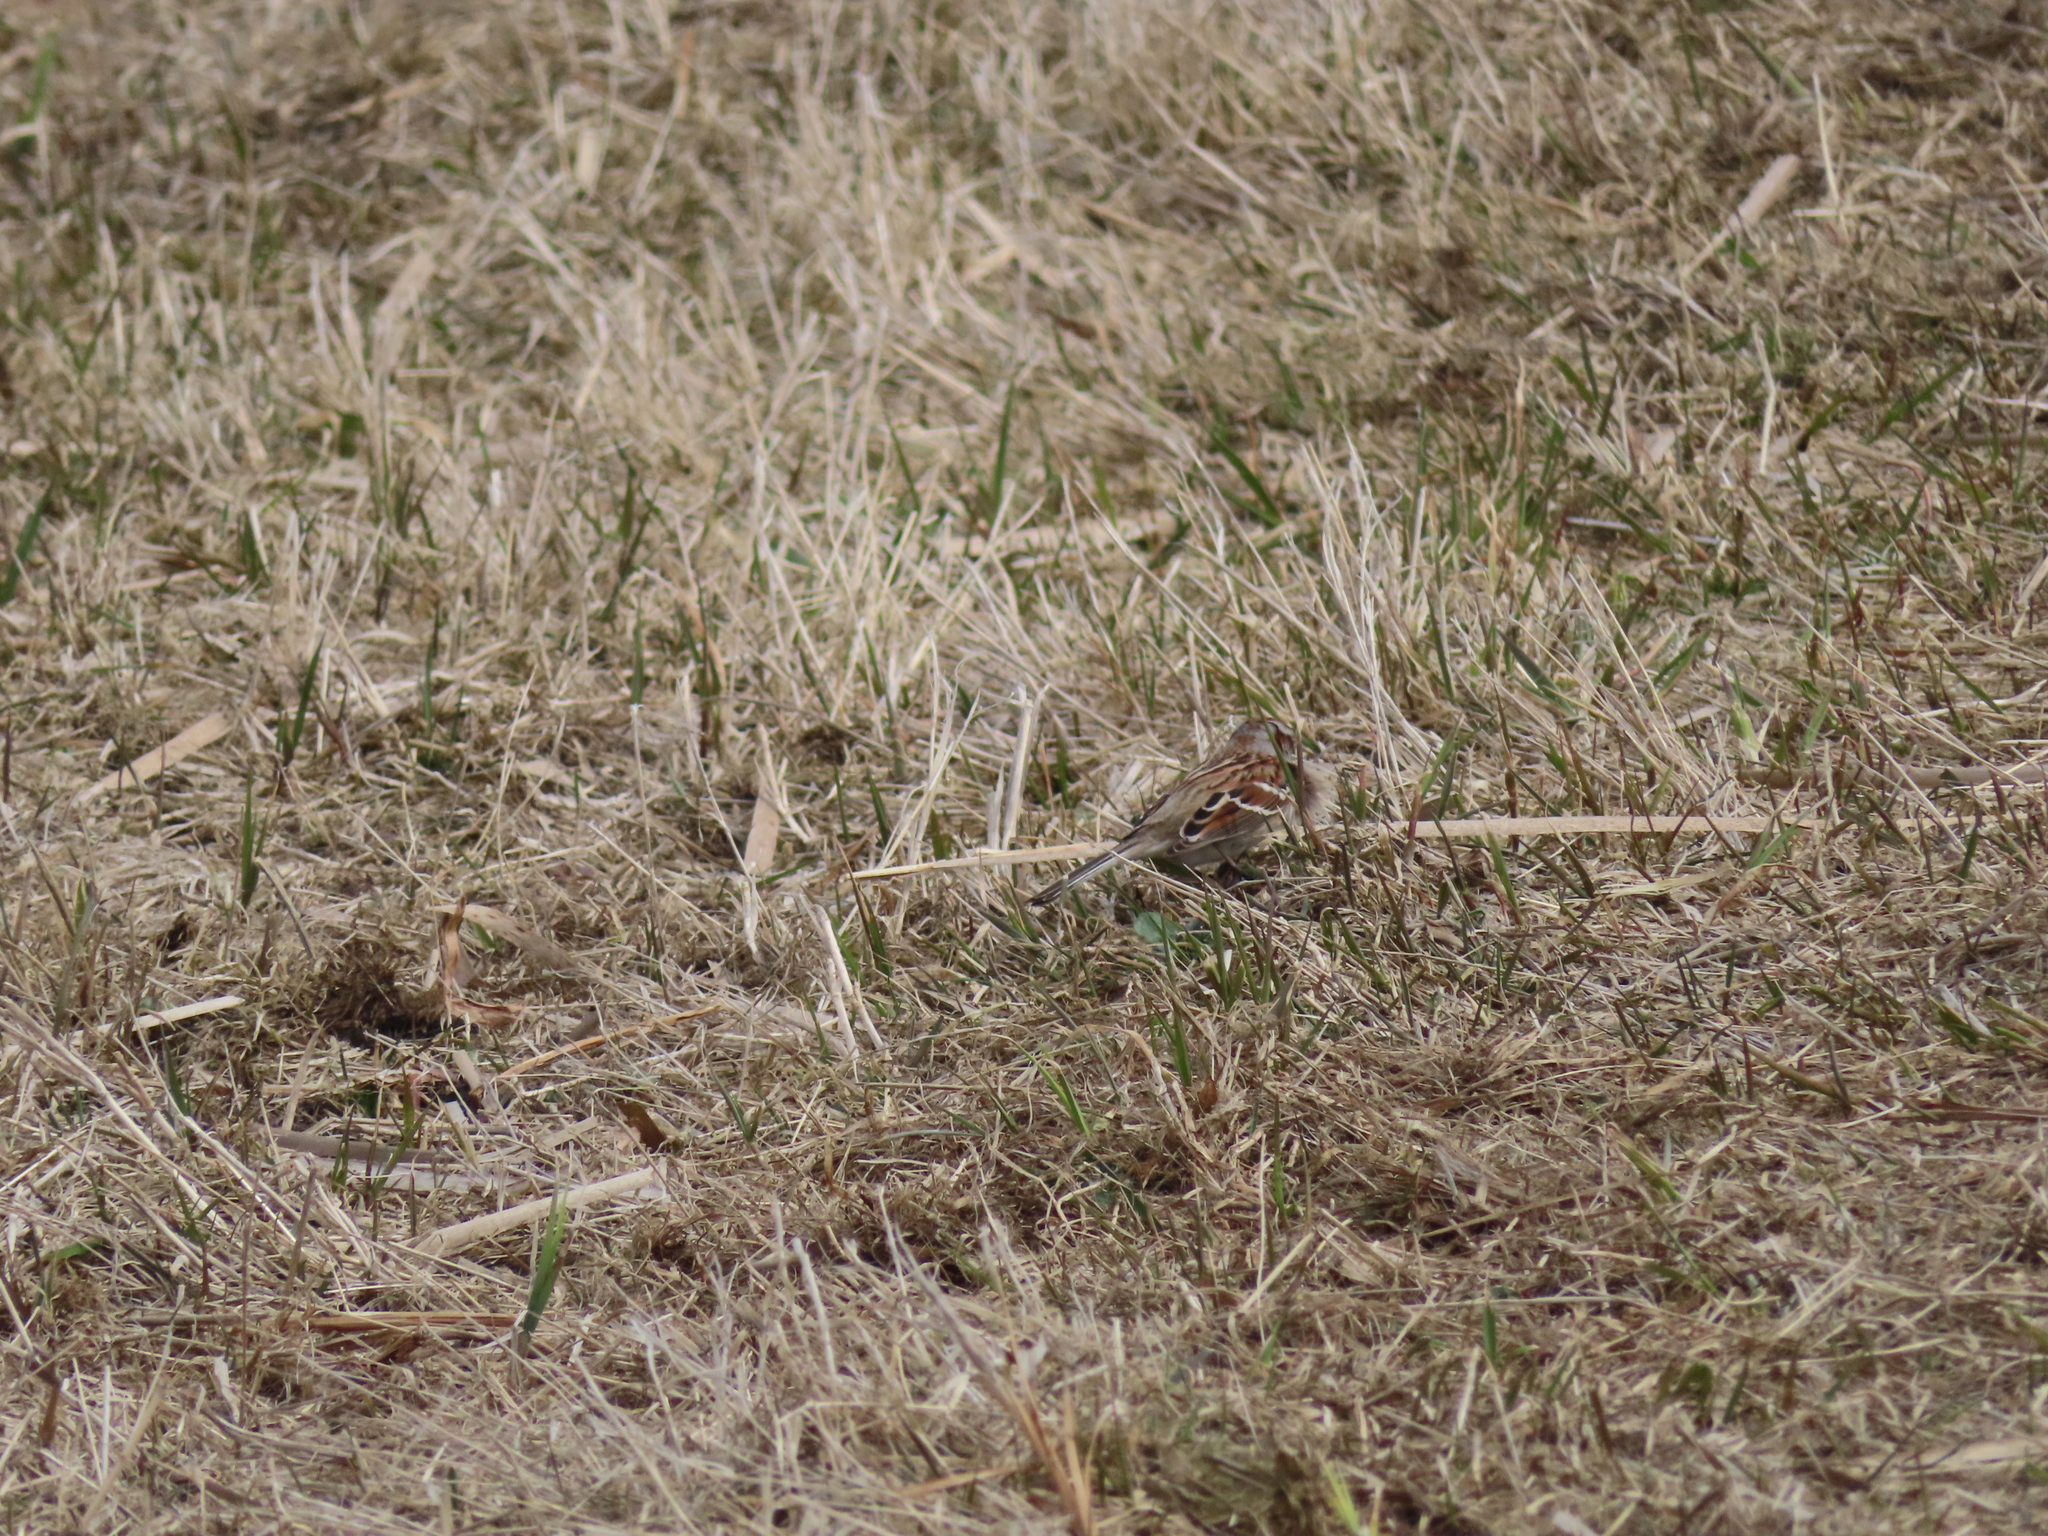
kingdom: Animalia
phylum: Chordata
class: Aves
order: Passeriformes
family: Passerellidae
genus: Spizelloides
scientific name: Spizelloides arborea
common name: American tree sparrow
